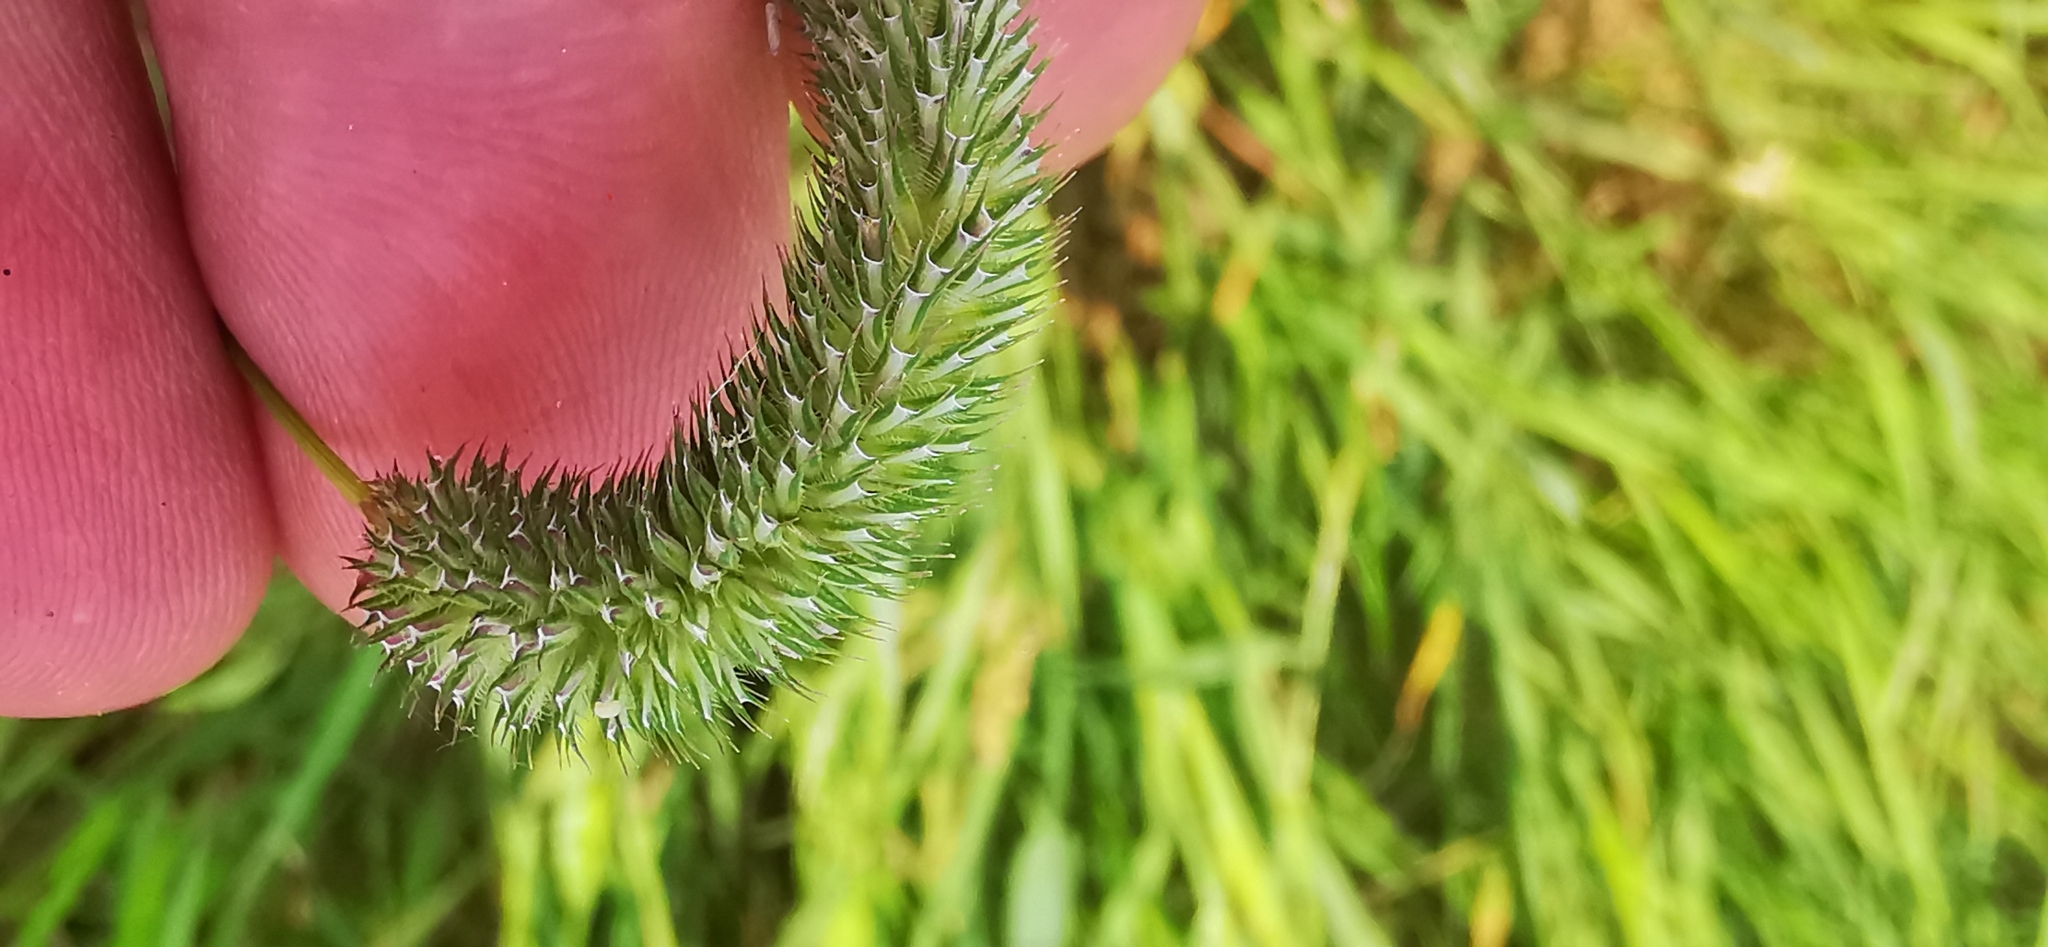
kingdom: Plantae
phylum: Tracheophyta
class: Liliopsida
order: Poales
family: Poaceae
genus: Phleum
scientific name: Phleum pratense
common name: Timothy grass
